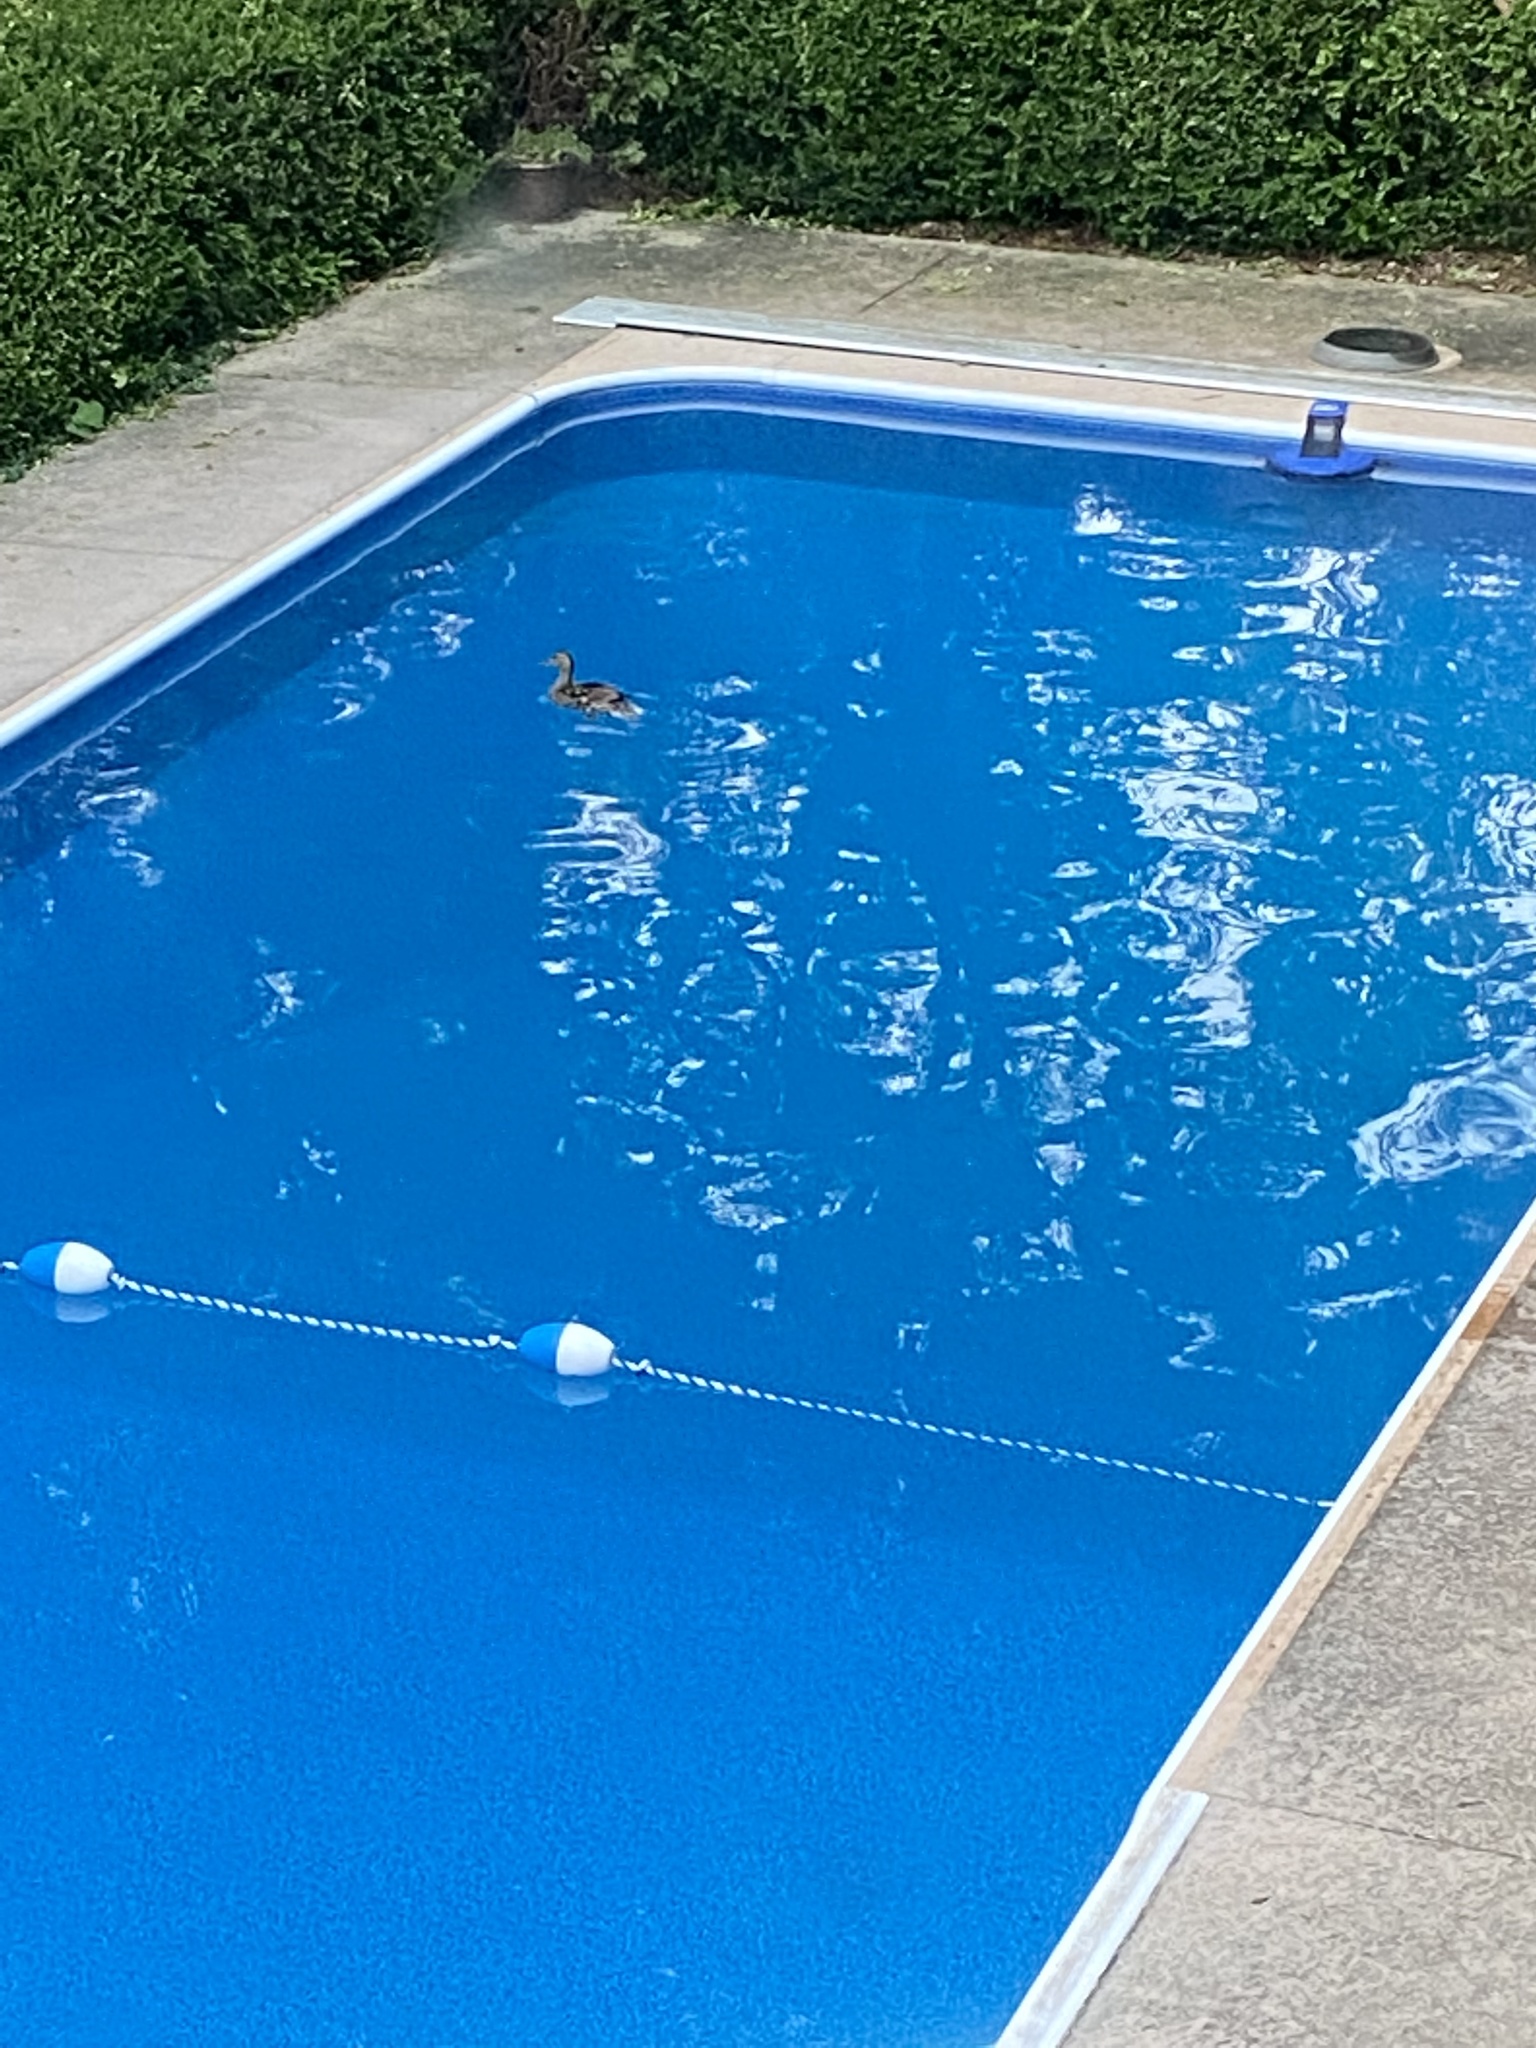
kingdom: Animalia
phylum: Chordata
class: Aves
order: Anseriformes
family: Anatidae
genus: Anas
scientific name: Anas platyrhynchos
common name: Mallard
